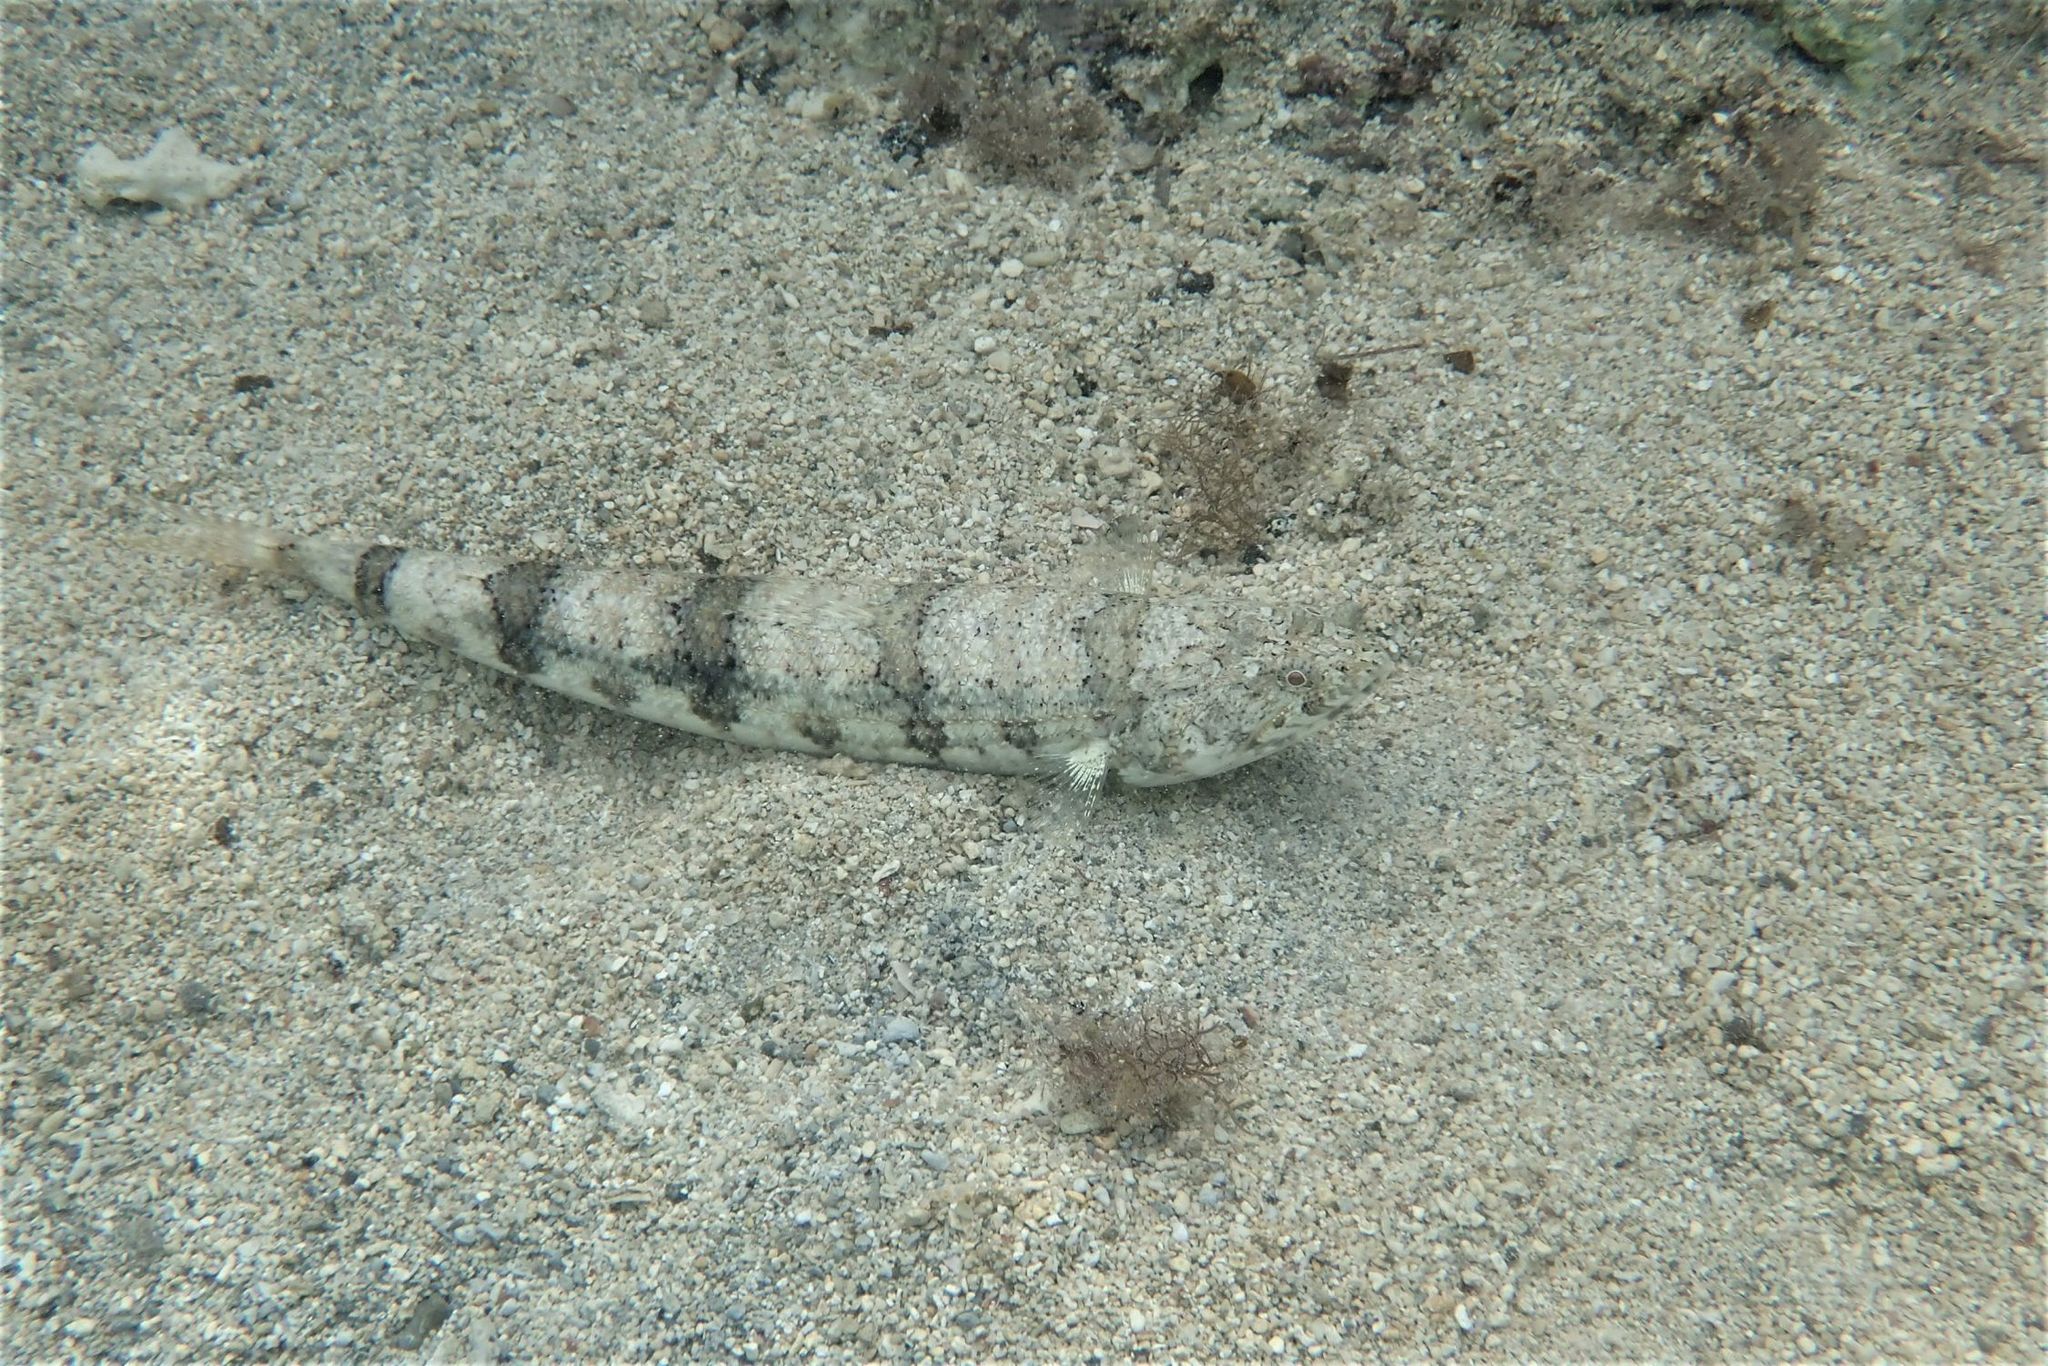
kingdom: Animalia
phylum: Chordata
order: Aulopiformes
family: Synodontidae
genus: Synodus
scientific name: Synodus dermatogenys
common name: Banded lizardfish
